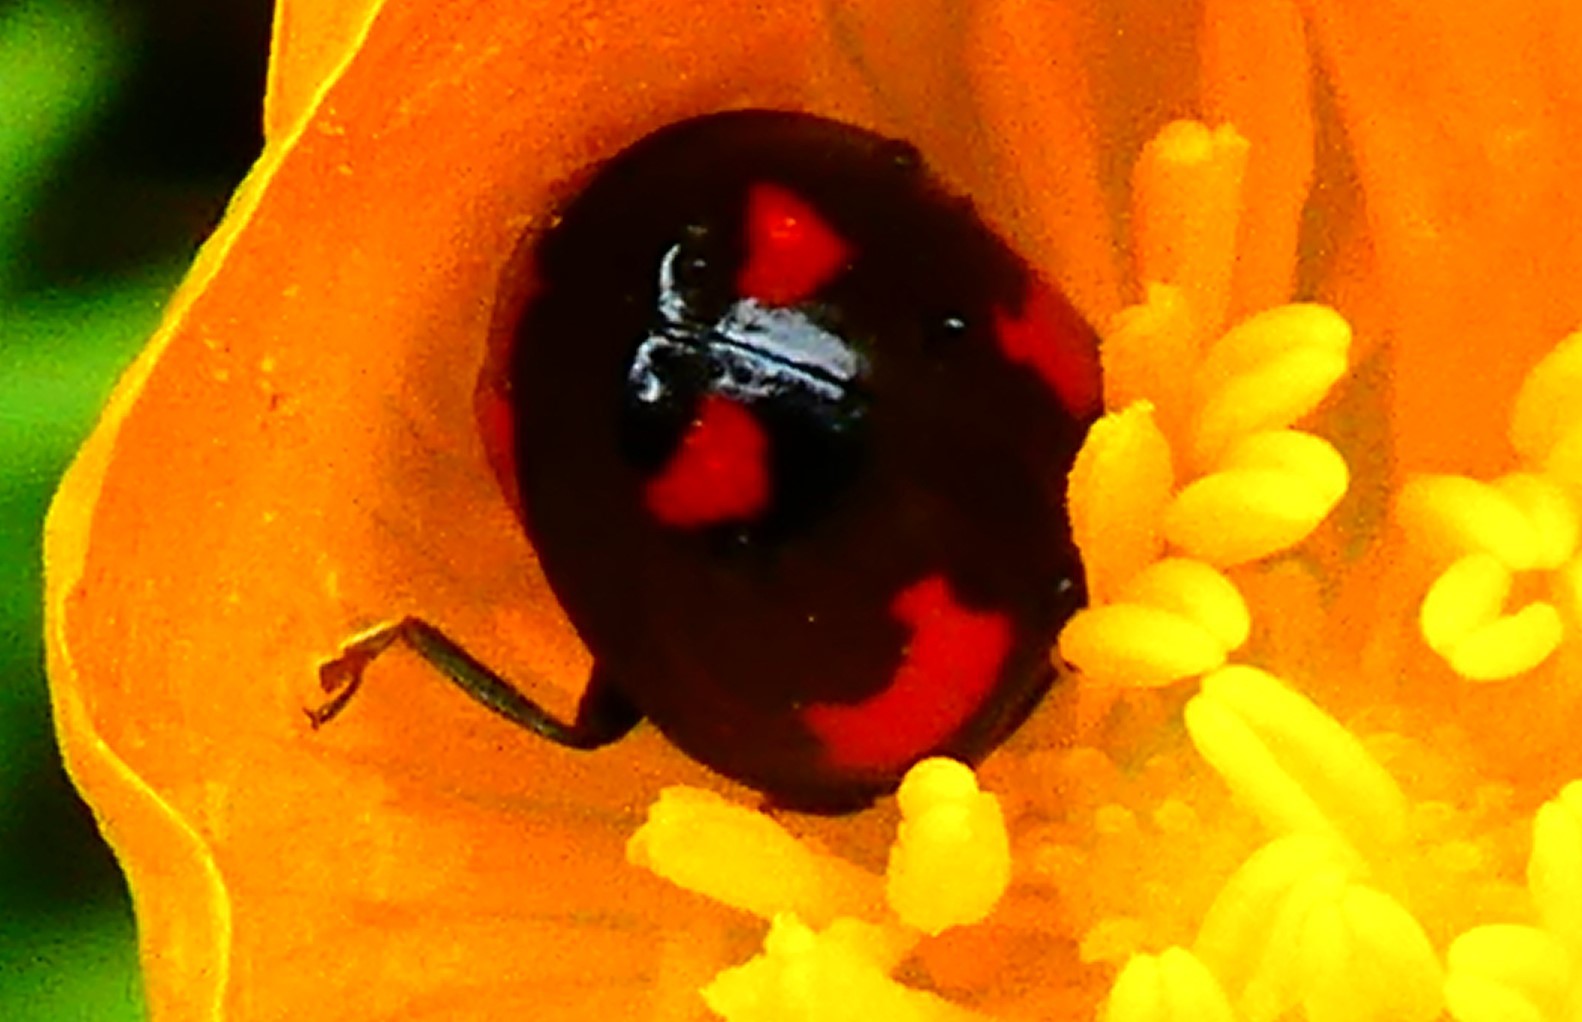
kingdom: Animalia
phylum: Arthropoda
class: Insecta
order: Coleoptera
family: Coccinellidae
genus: Harmonia
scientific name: Harmonia axyridis
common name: Harlequin ladybird
